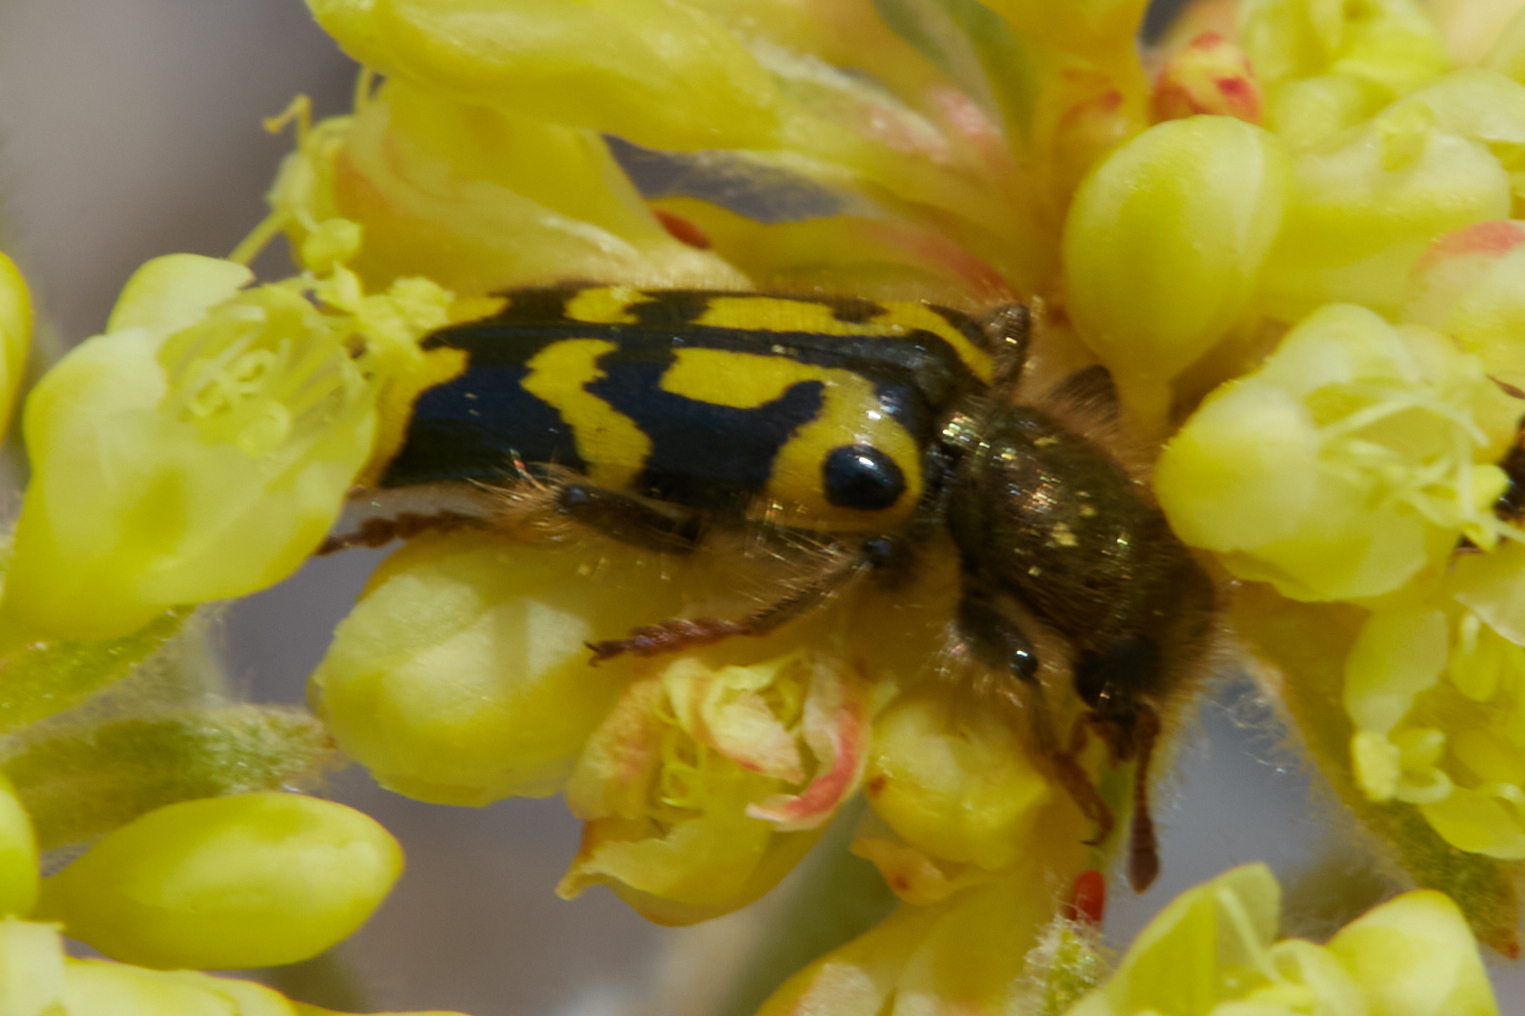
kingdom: Animalia
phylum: Arthropoda
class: Insecta
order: Coleoptera
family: Cleridae
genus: Trichodes
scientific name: Trichodes ornatus
